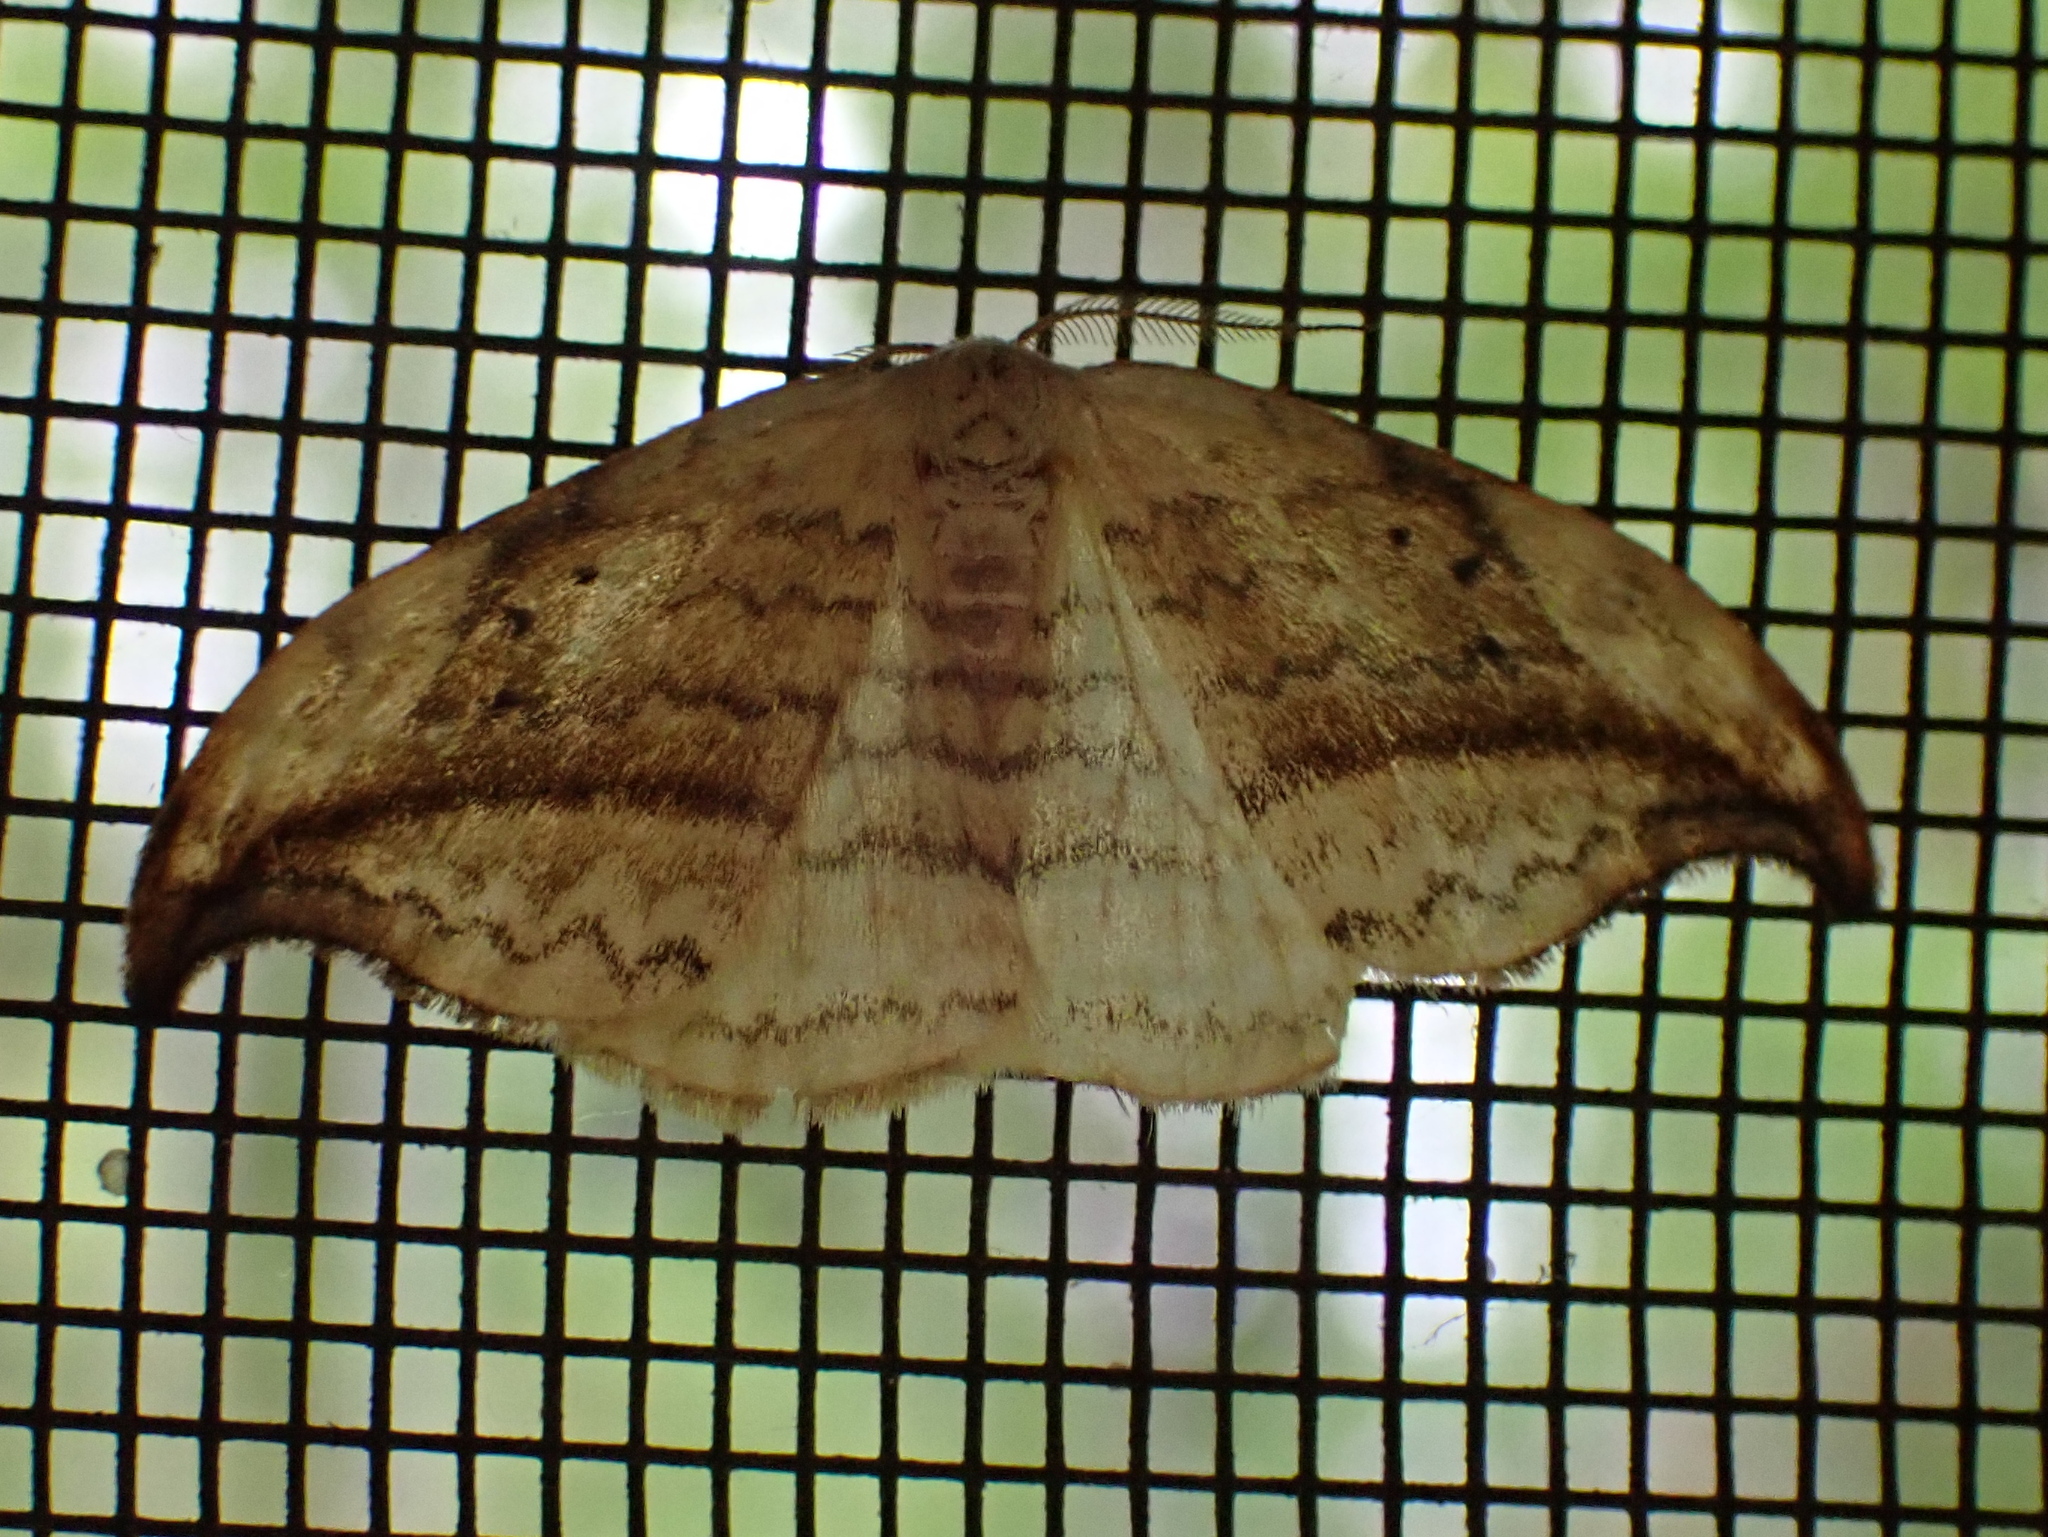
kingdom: Animalia
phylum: Arthropoda
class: Insecta
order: Lepidoptera
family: Drepanidae
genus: Drepana
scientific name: Drepana arcuata
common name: Arched hooktip moth
